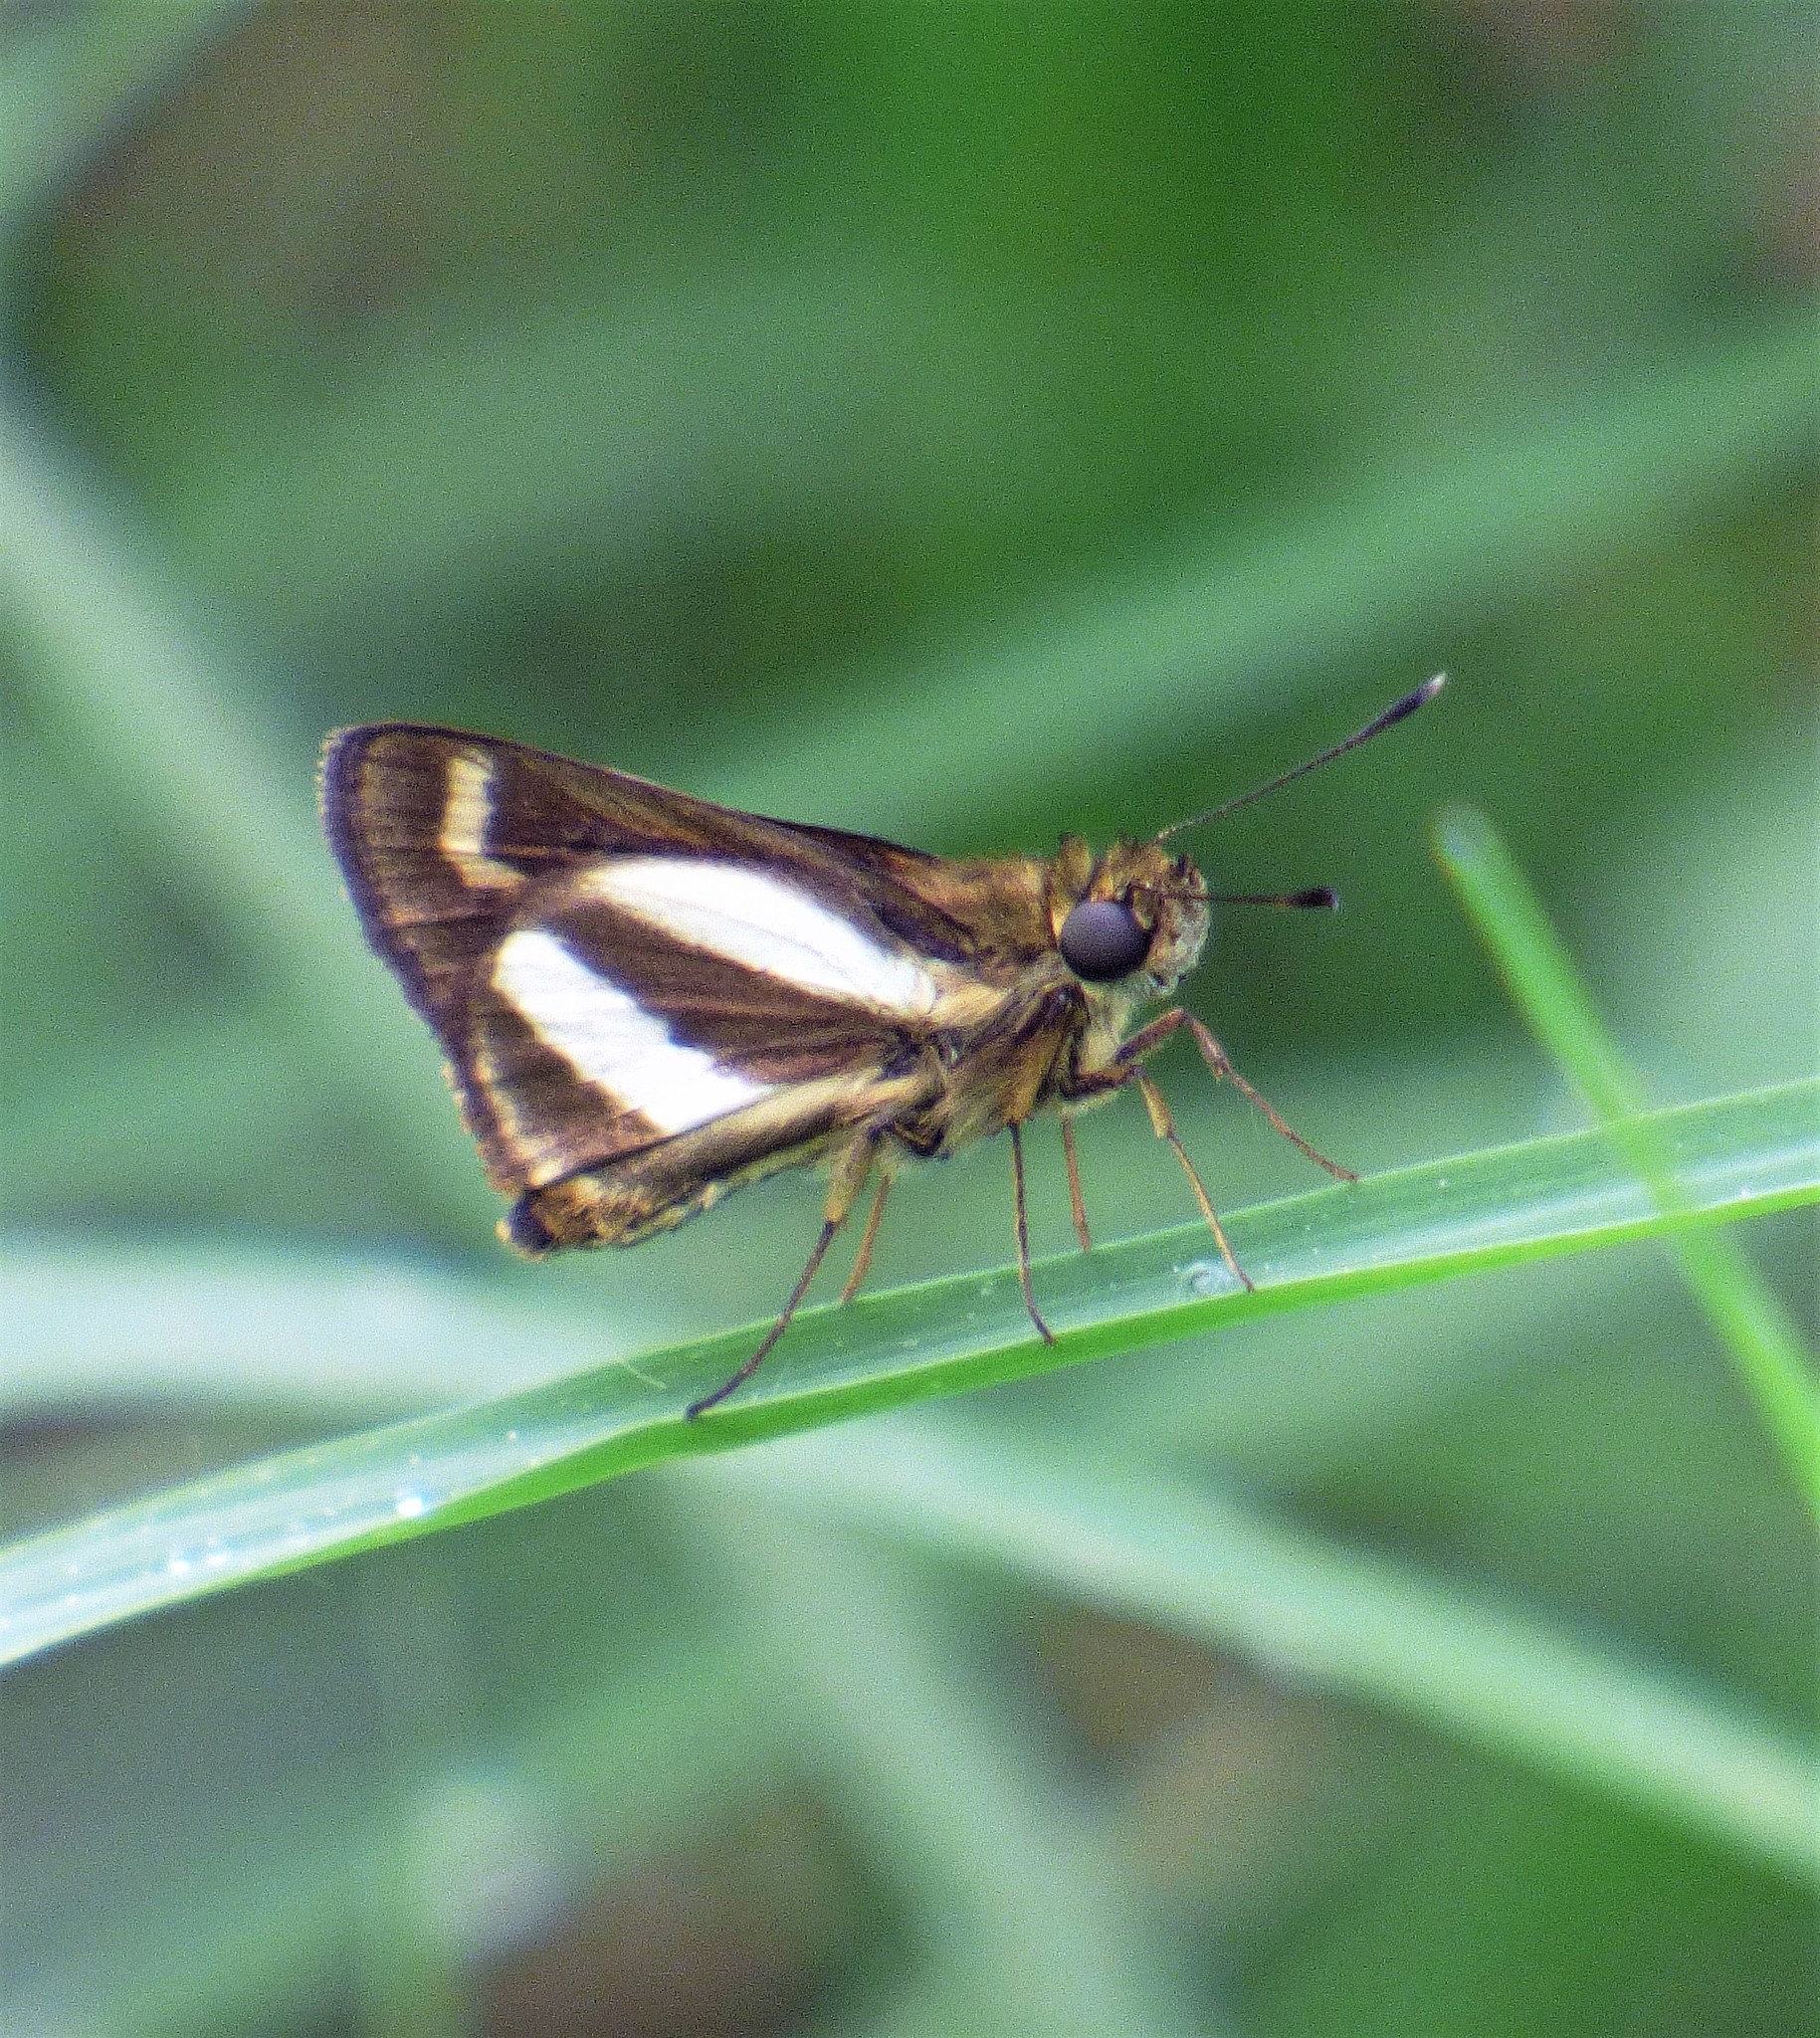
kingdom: Animalia
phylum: Arthropoda
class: Insecta
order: Lepidoptera
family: Hesperiidae
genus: Metron
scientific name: Metron
